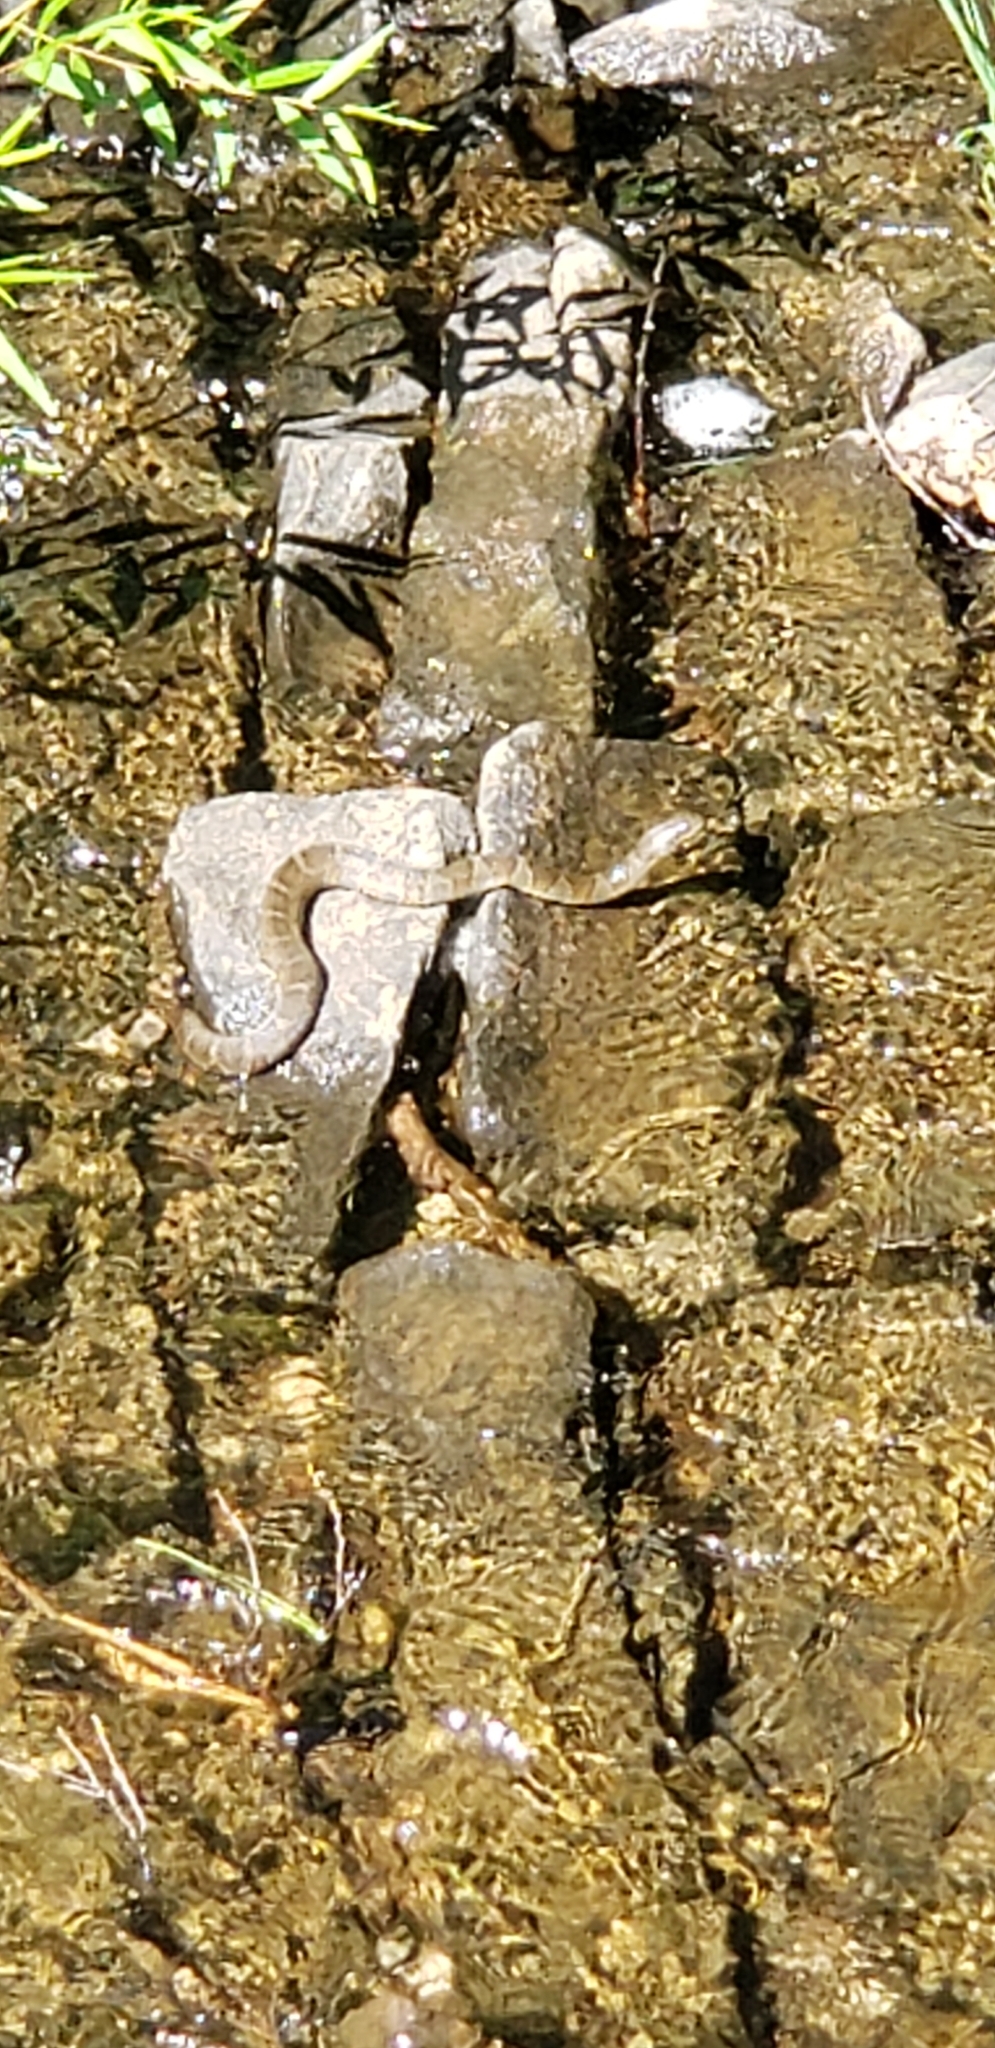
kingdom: Animalia
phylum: Chordata
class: Squamata
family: Colubridae
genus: Nerodia
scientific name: Nerodia sipedon
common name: Northern water snake
